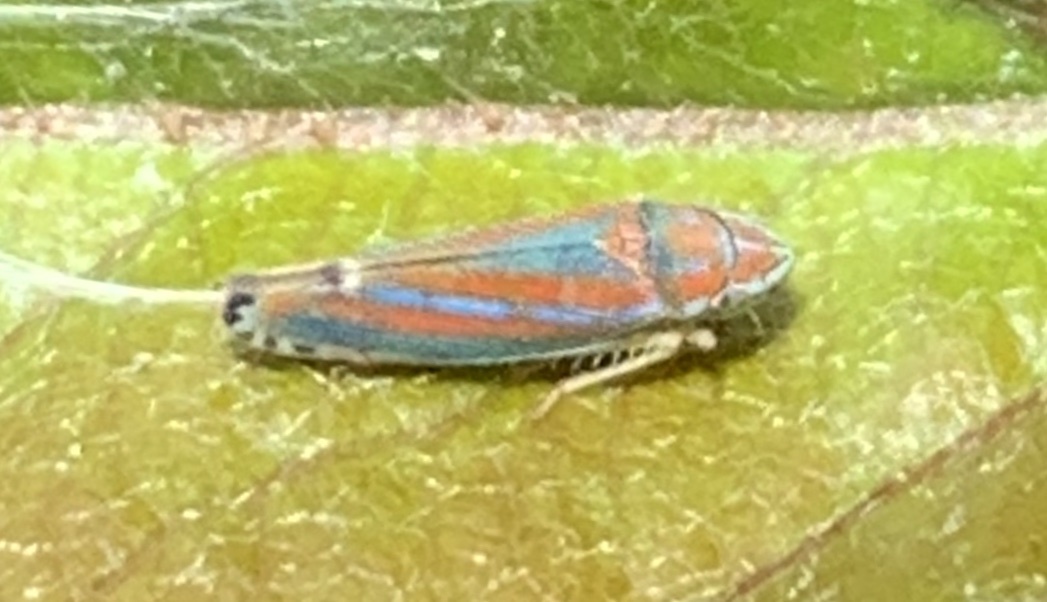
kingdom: Animalia
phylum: Arthropoda
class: Insecta
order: Hemiptera
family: Cicadellidae
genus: Graphocephala
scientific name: Graphocephala versuta
